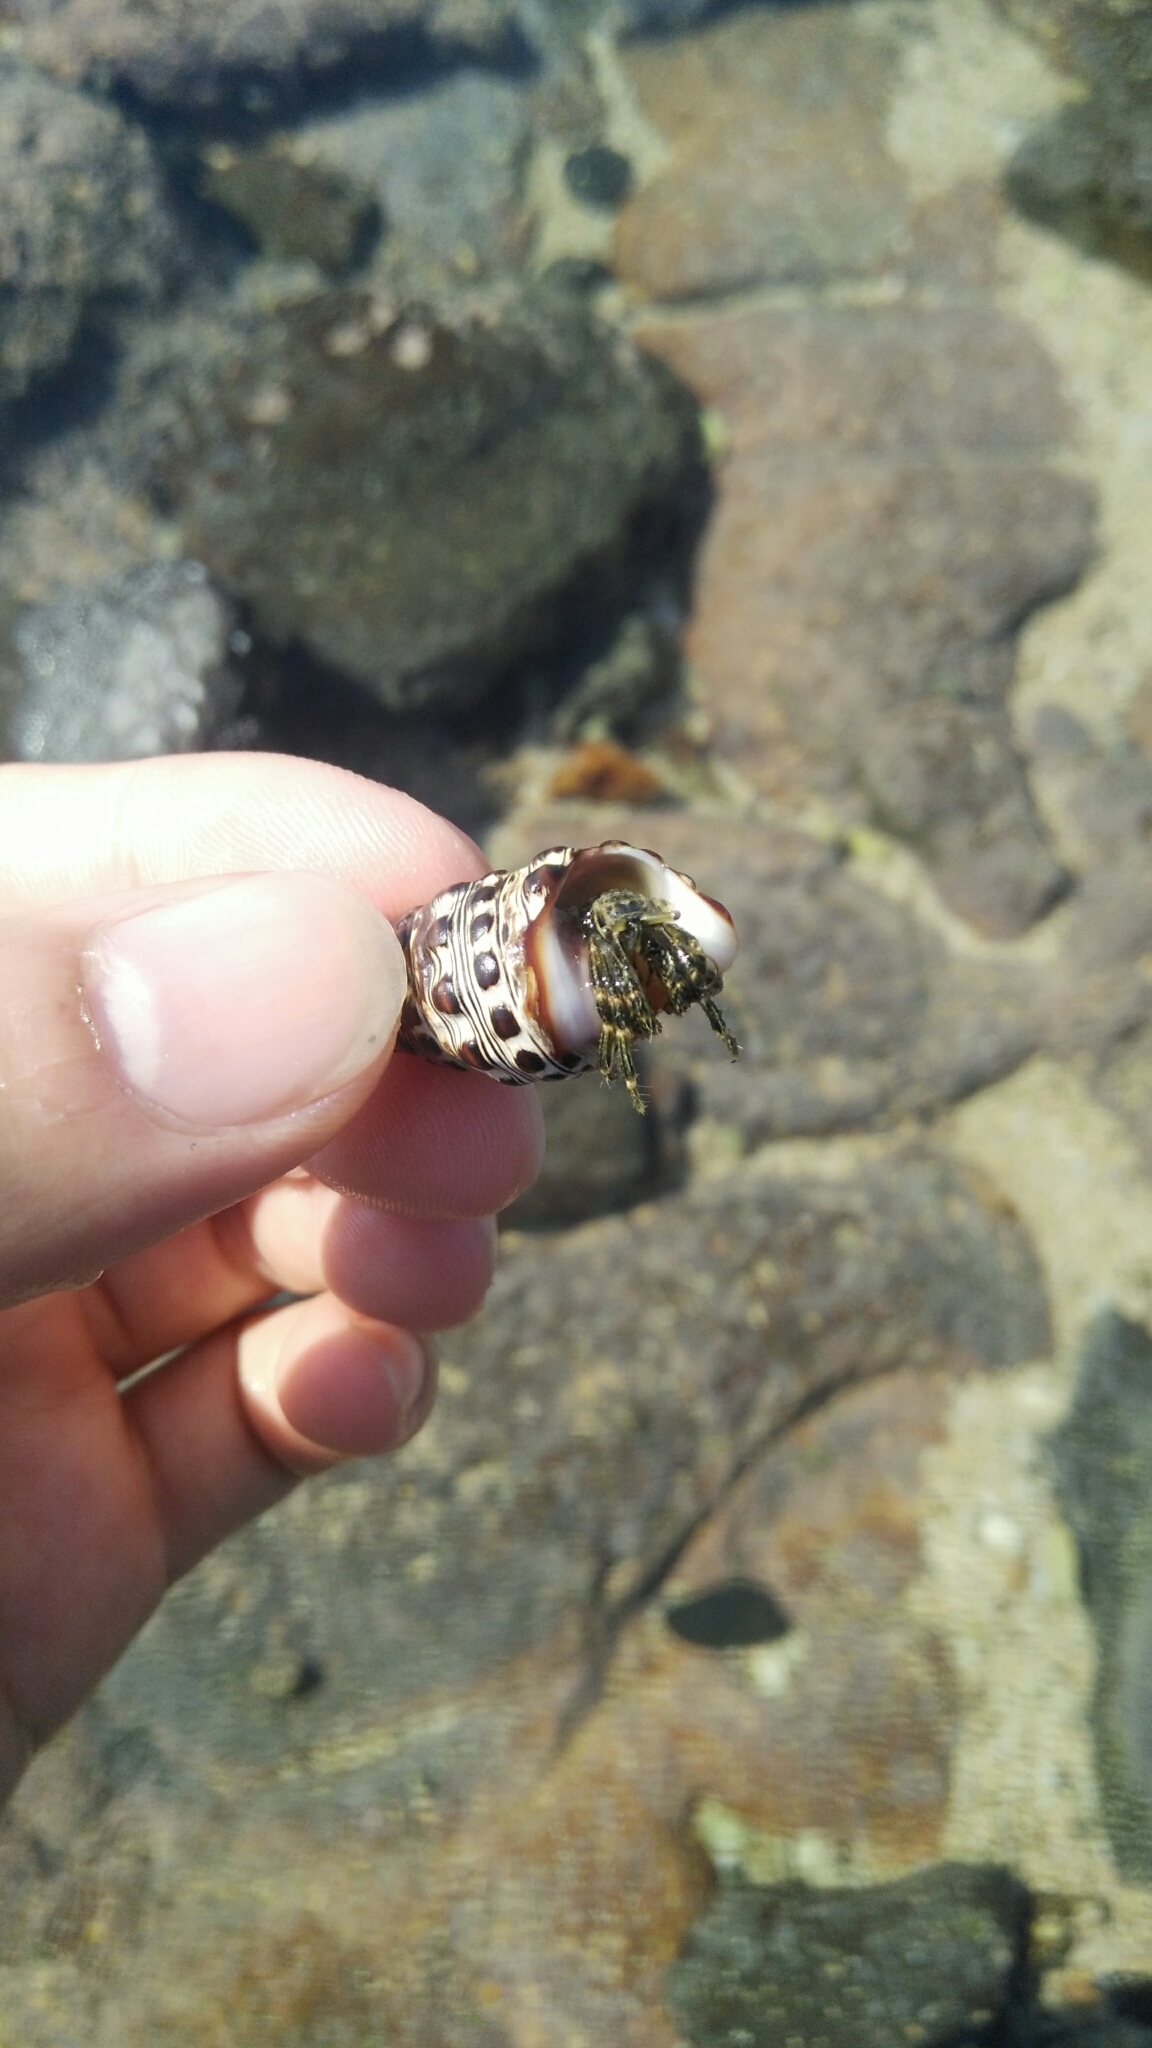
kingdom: Animalia
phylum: Arthropoda
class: Malacostraca
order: Decapoda
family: Diogenidae
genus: Clibanarius
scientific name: Clibanarius striolatus
